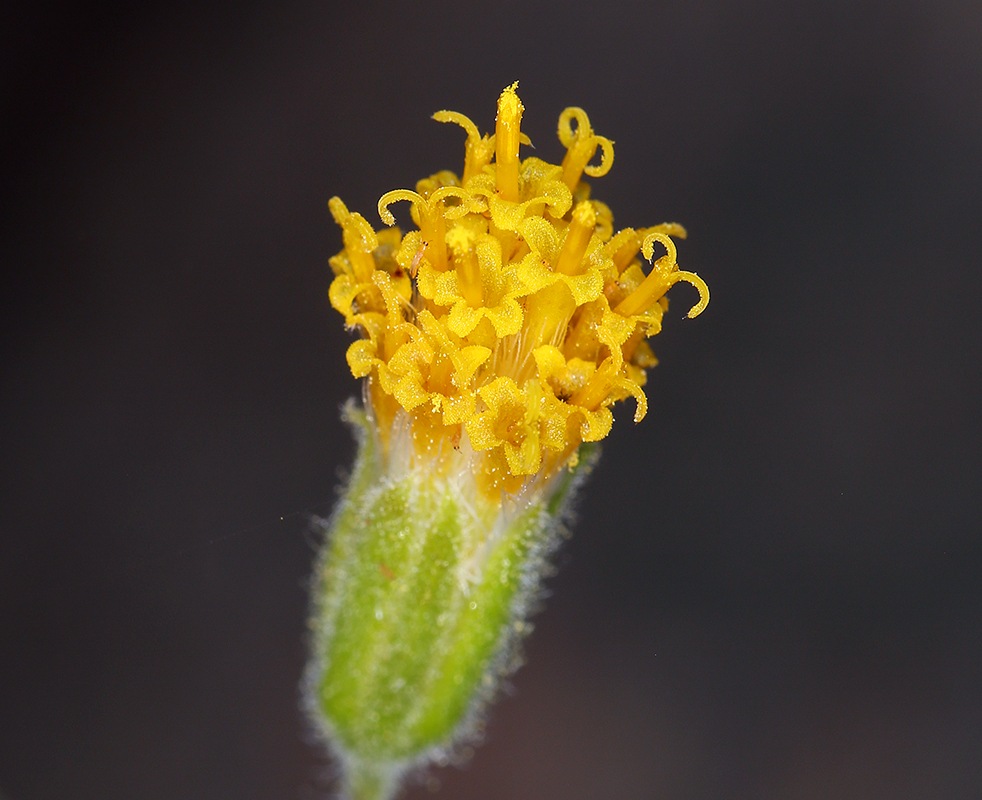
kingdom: Plantae
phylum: Tracheophyta
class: Magnoliopsida
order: Asterales
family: Asteraceae
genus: Arnica
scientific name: Arnica discoidea
